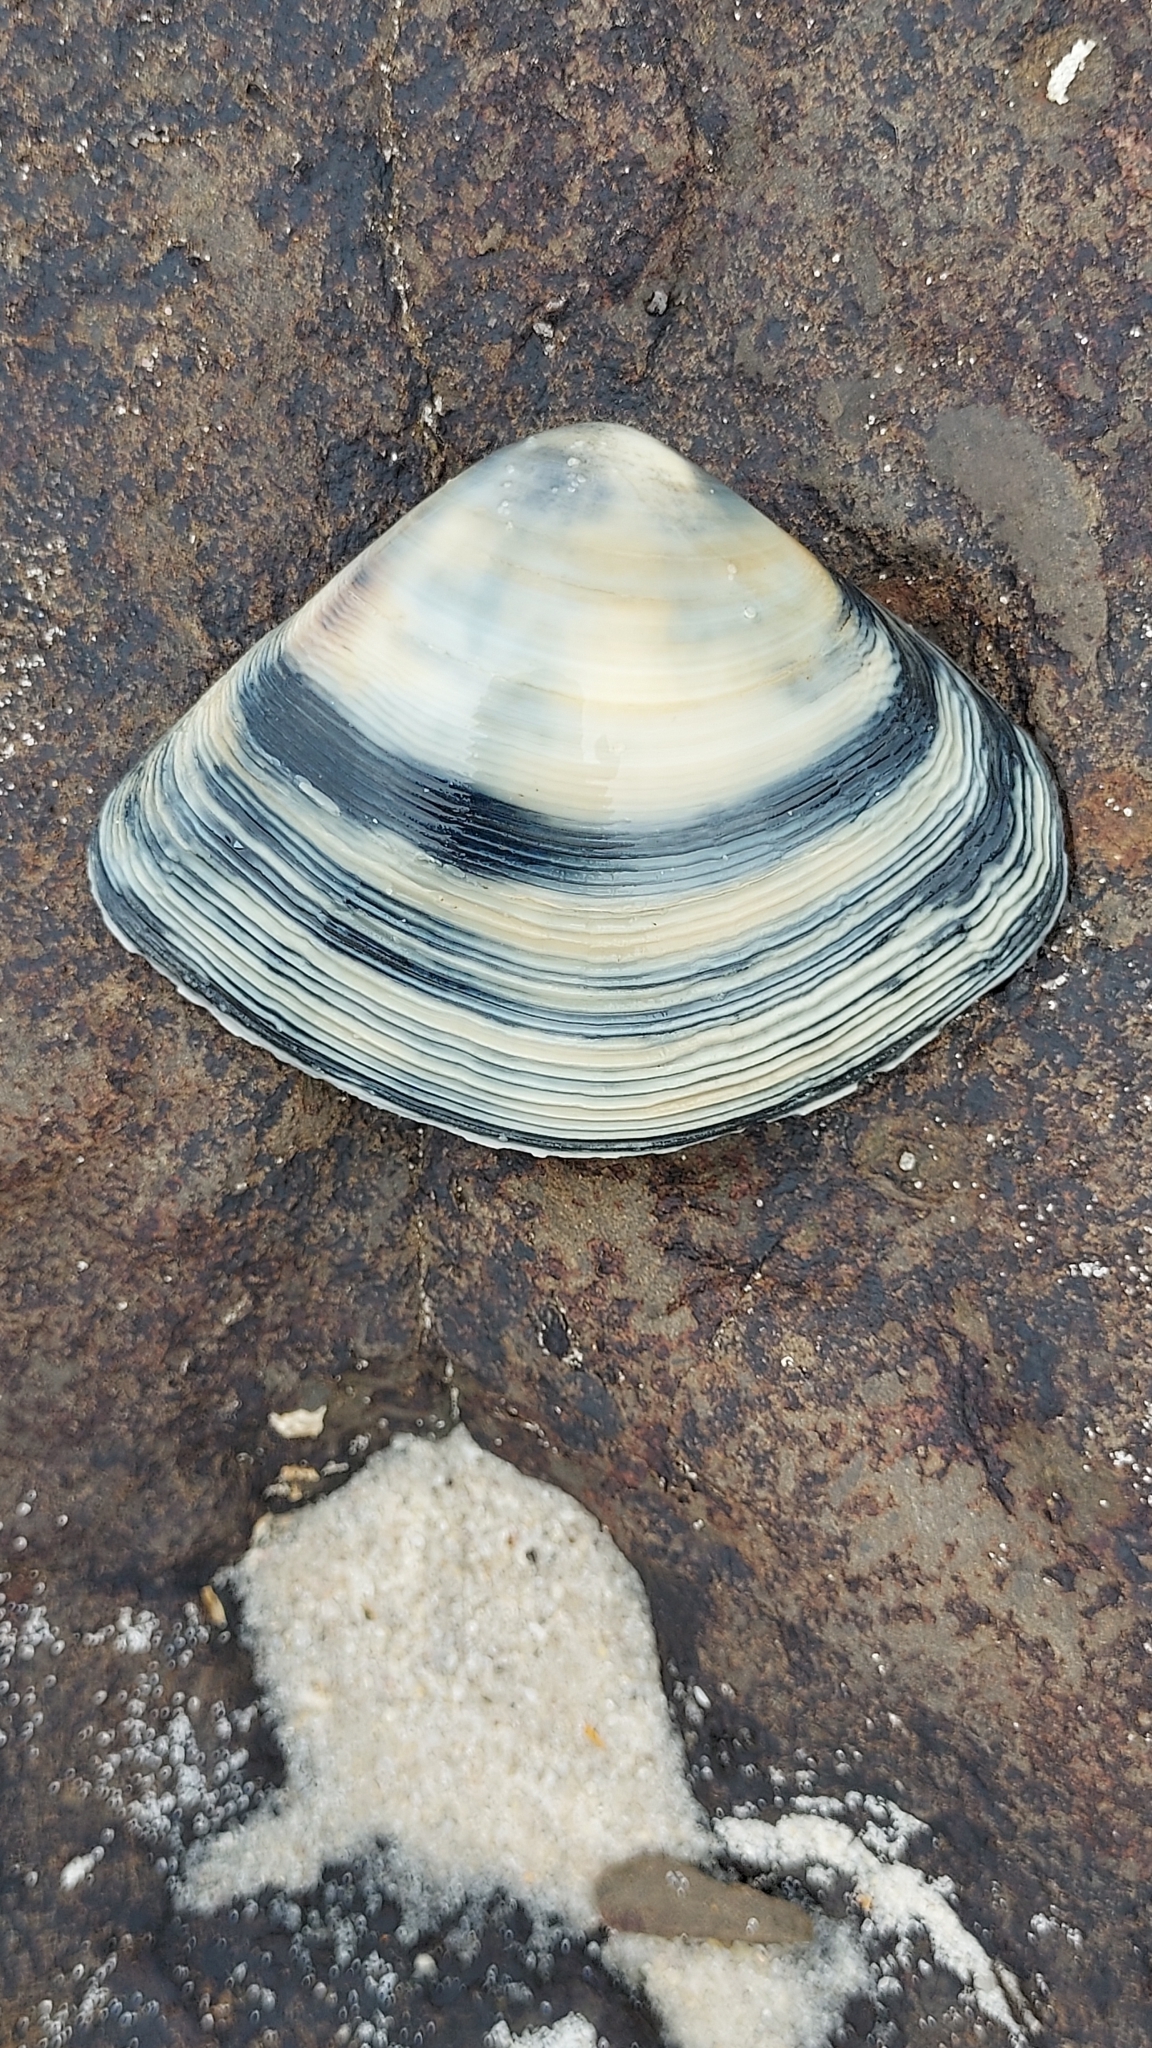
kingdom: Animalia
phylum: Mollusca
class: Bivalvia
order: Venerida
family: Mactridae
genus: Austromactra
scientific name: Austromactra rufescens
